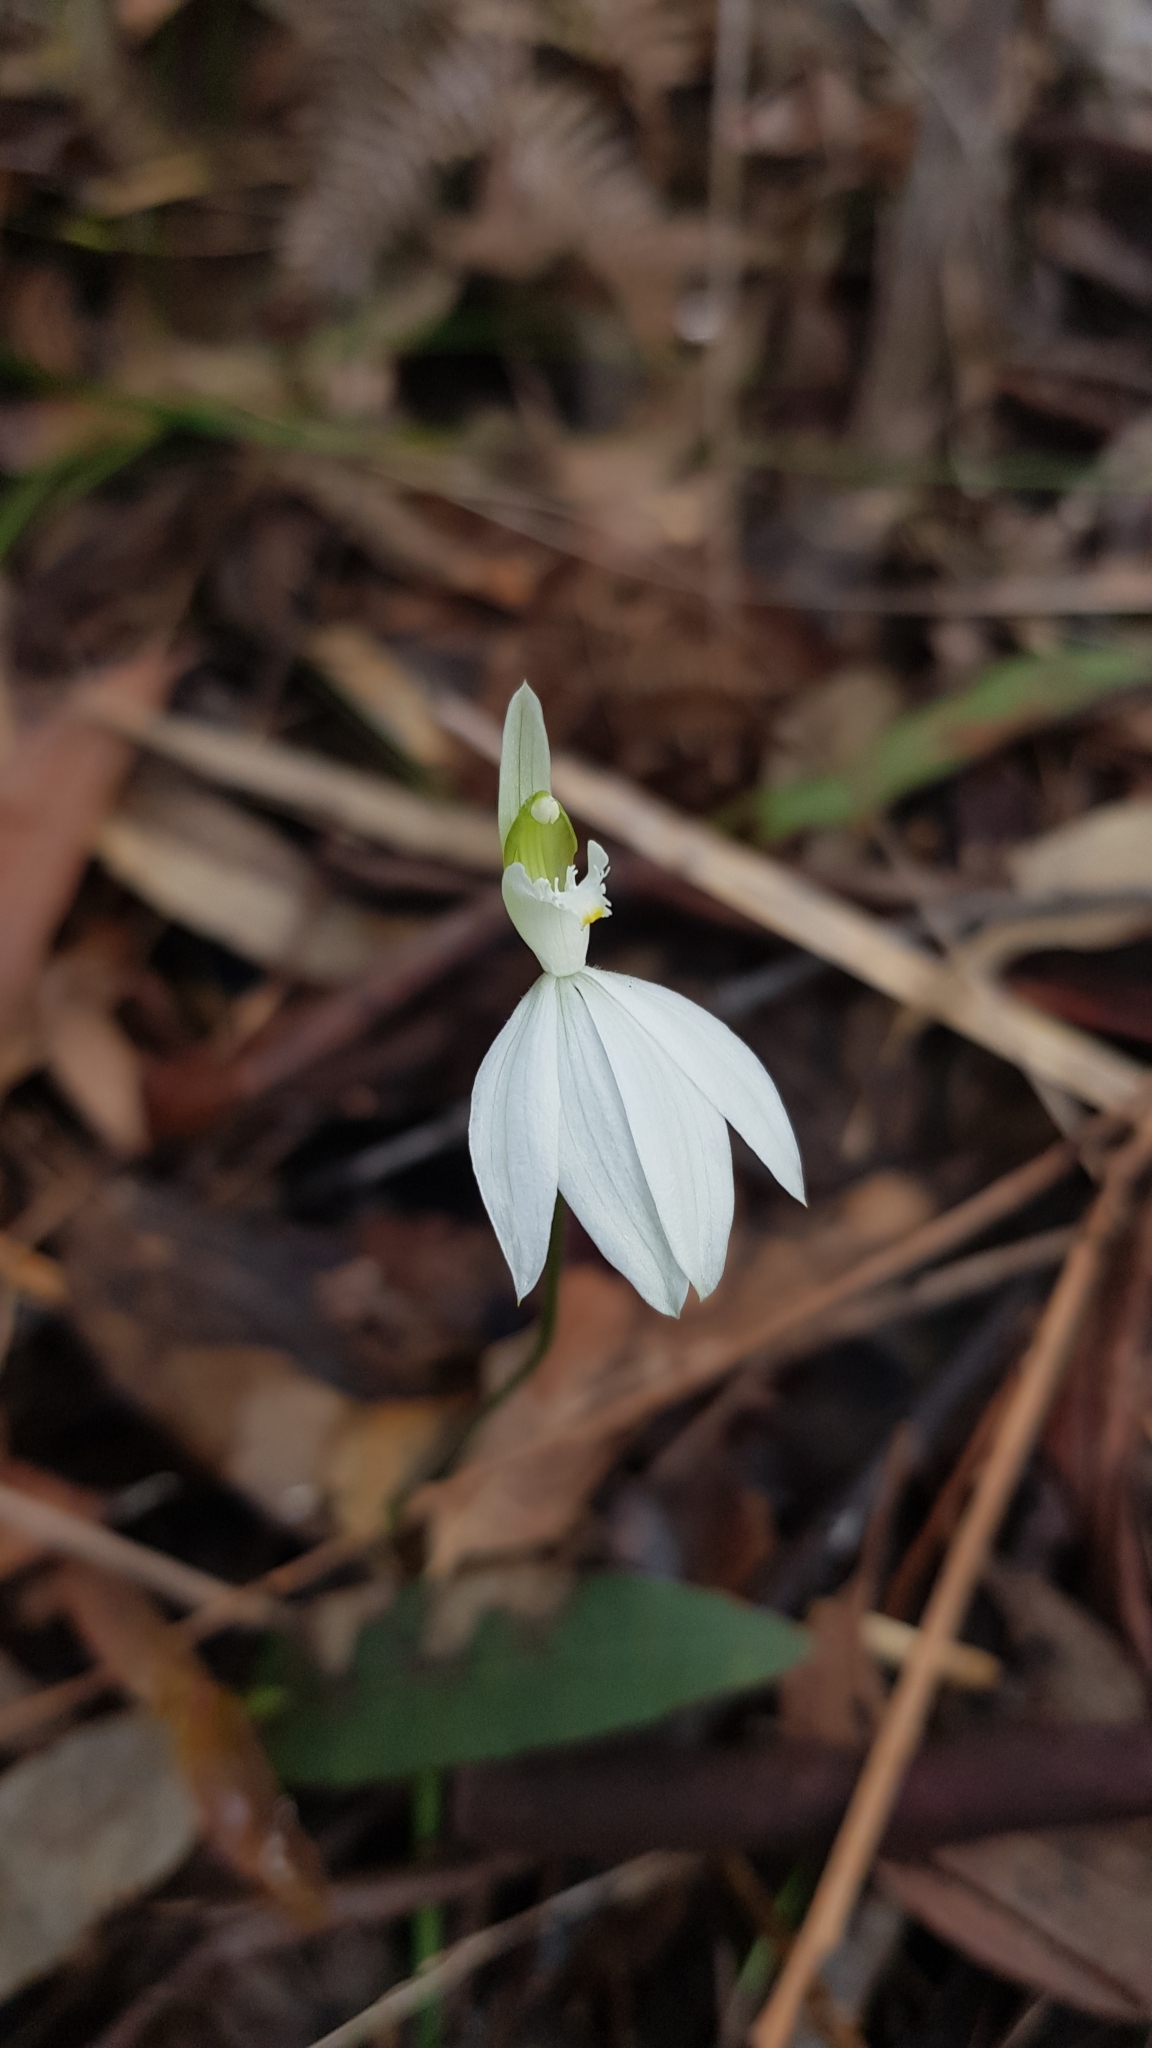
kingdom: Plantae
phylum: Tracheophyta
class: Liliopsida
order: Asparagales
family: Orchidaceae
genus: Caladenia
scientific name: Caladenia catenata
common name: White caladenia
